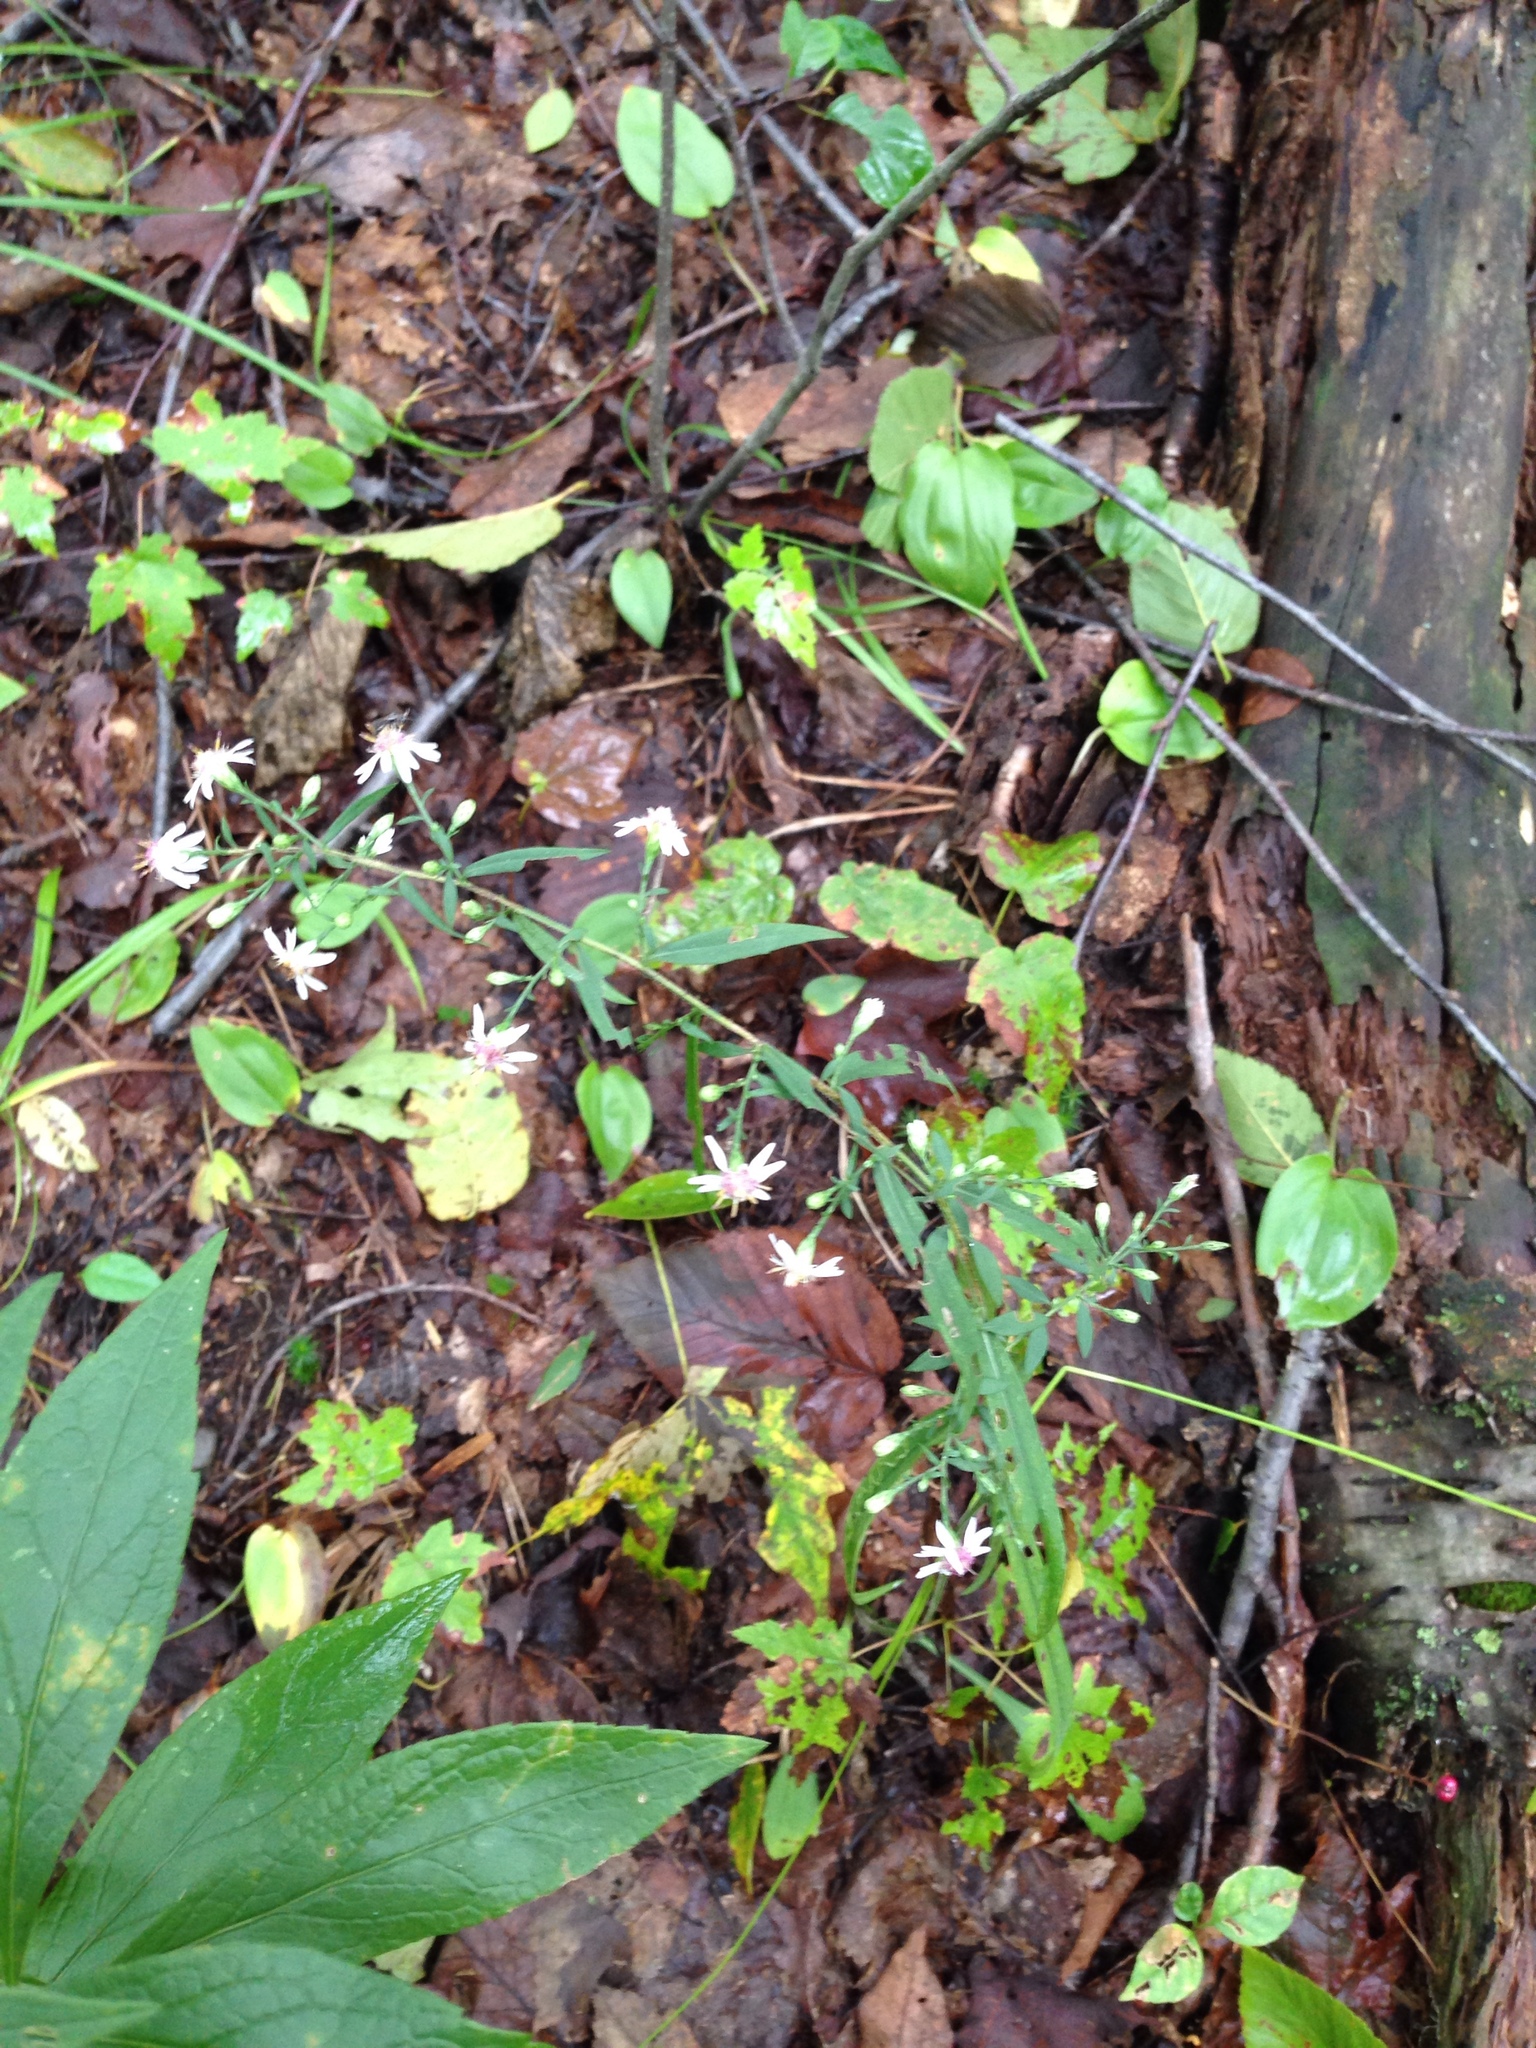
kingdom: Plantae
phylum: Tracheophyta
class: Magnoliopsida
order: Asterales
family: Asteraceae
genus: Symphyotrichum
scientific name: Symphyotrichum lateriflorum
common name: Calico aster
